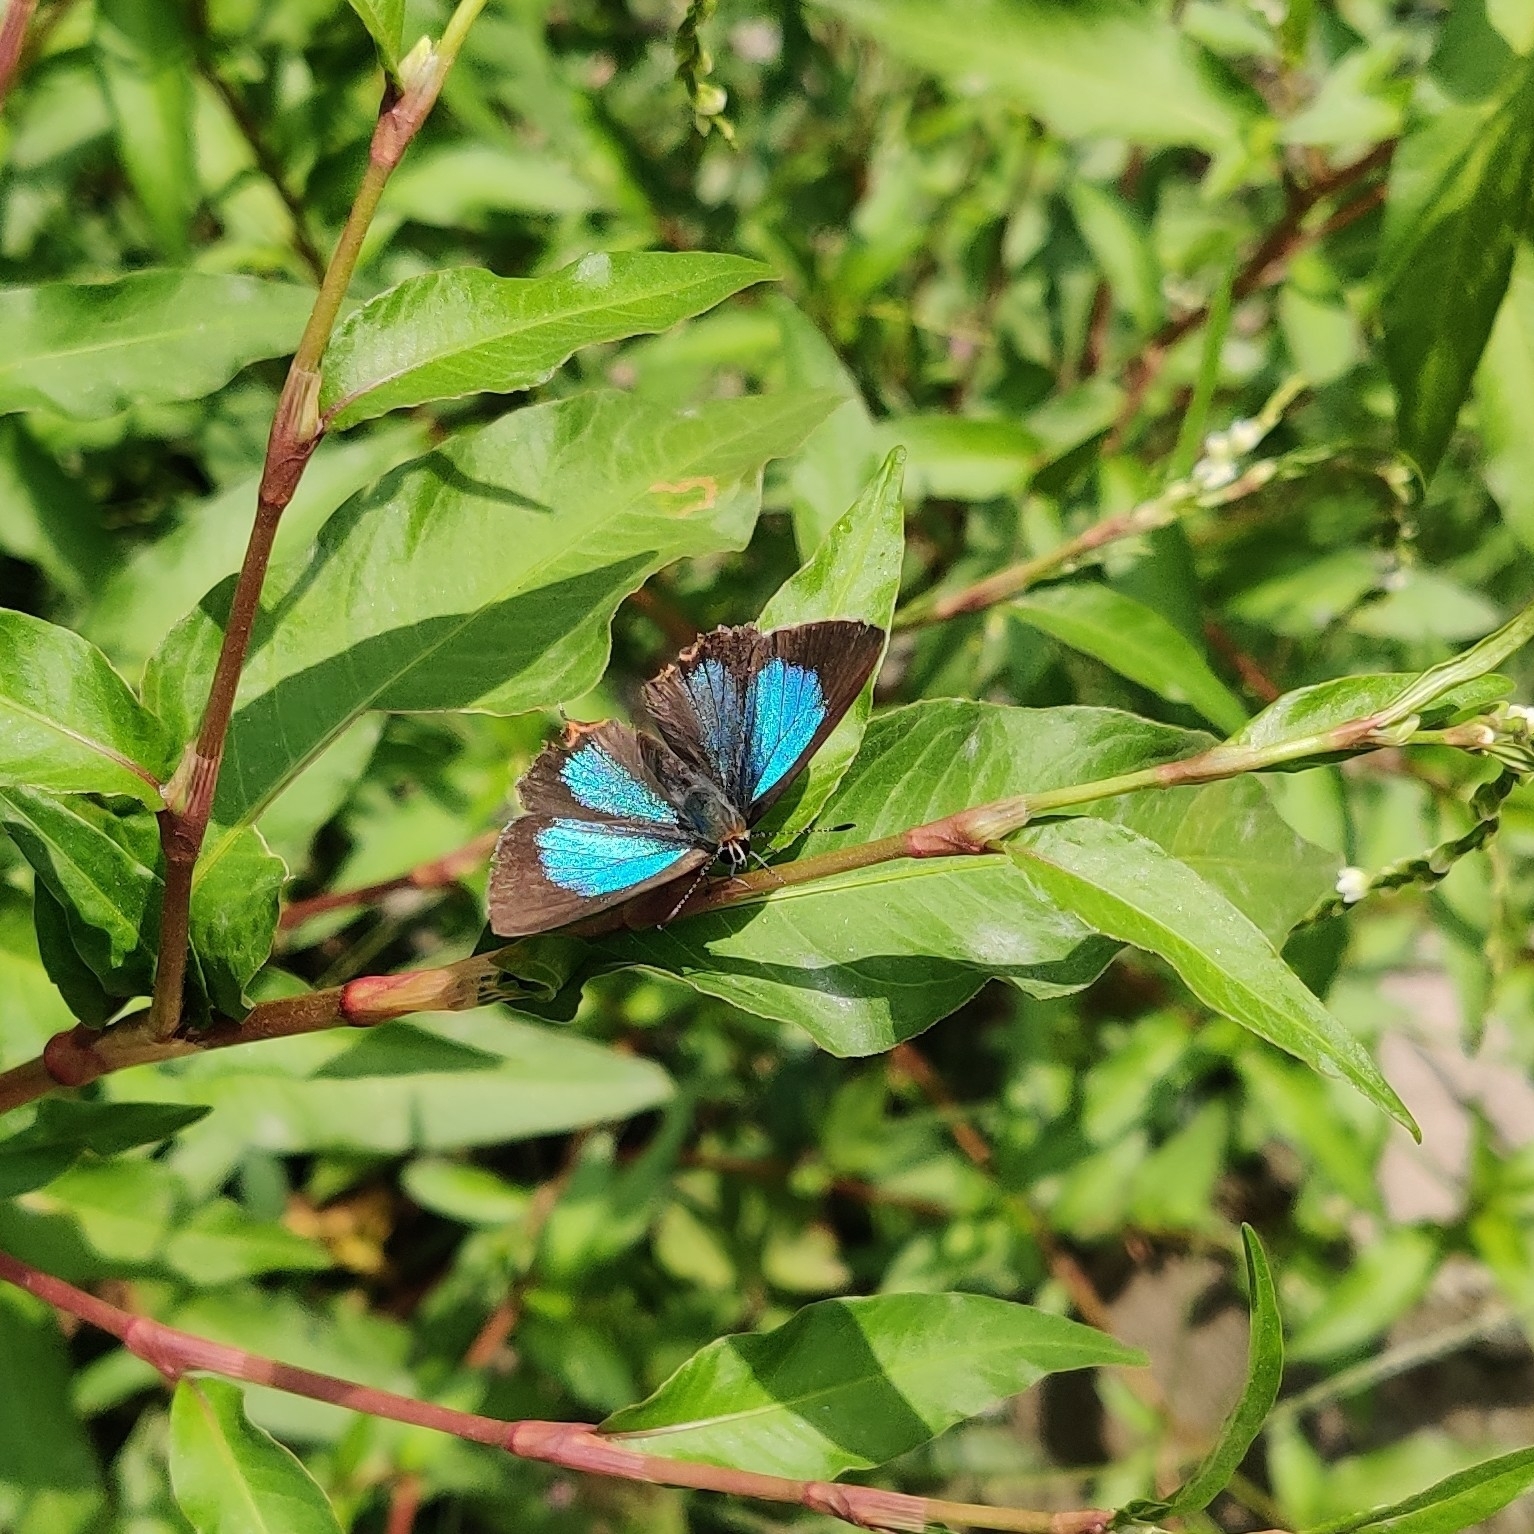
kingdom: Animalia
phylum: Arthropoda
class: Insecta
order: Lepidoptera
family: Lycaenidae
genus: Heliophorus
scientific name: Heliophorus
